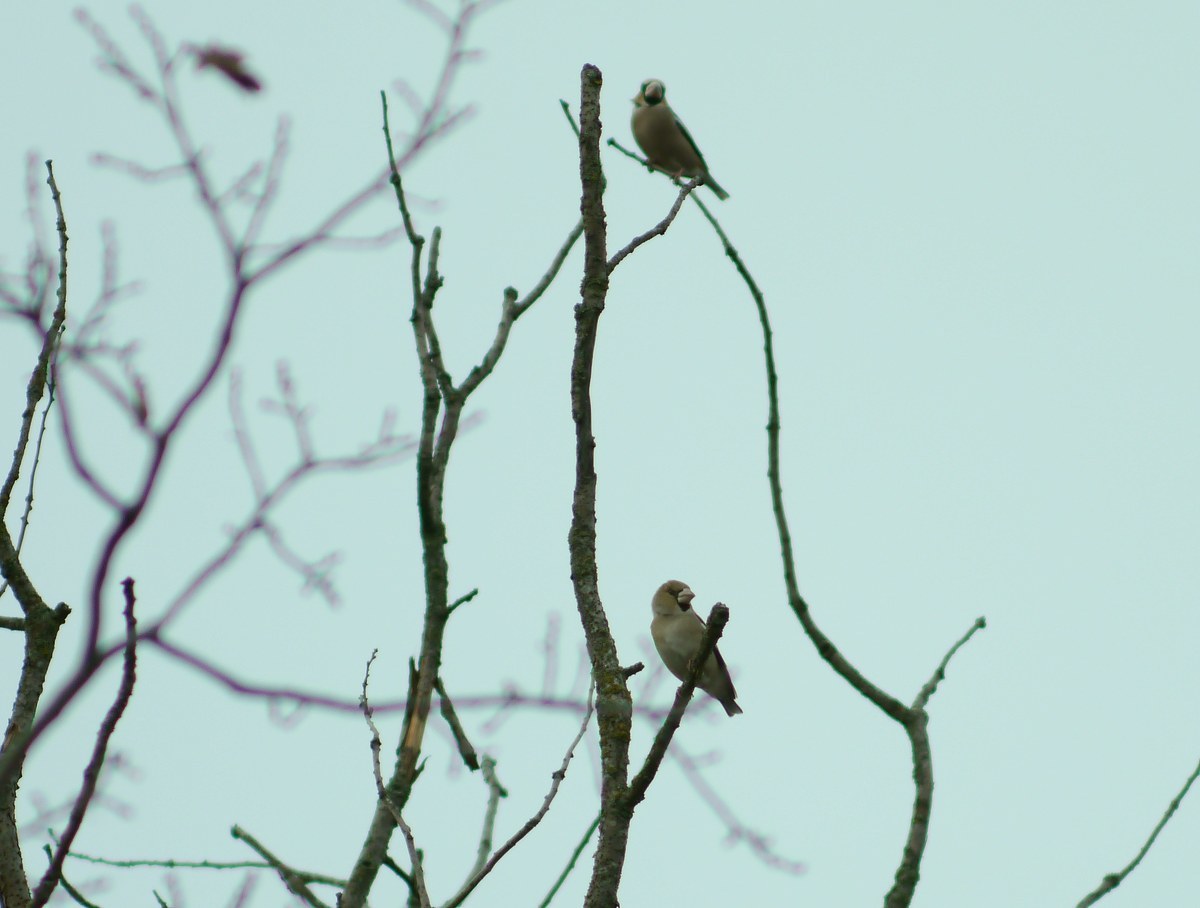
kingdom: Animalia
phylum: Chordata
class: Aves
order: Passeriformes
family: Fringillidae
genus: Coccothraustes
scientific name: Coccothraustes coccothraustes
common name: Hawfinch
